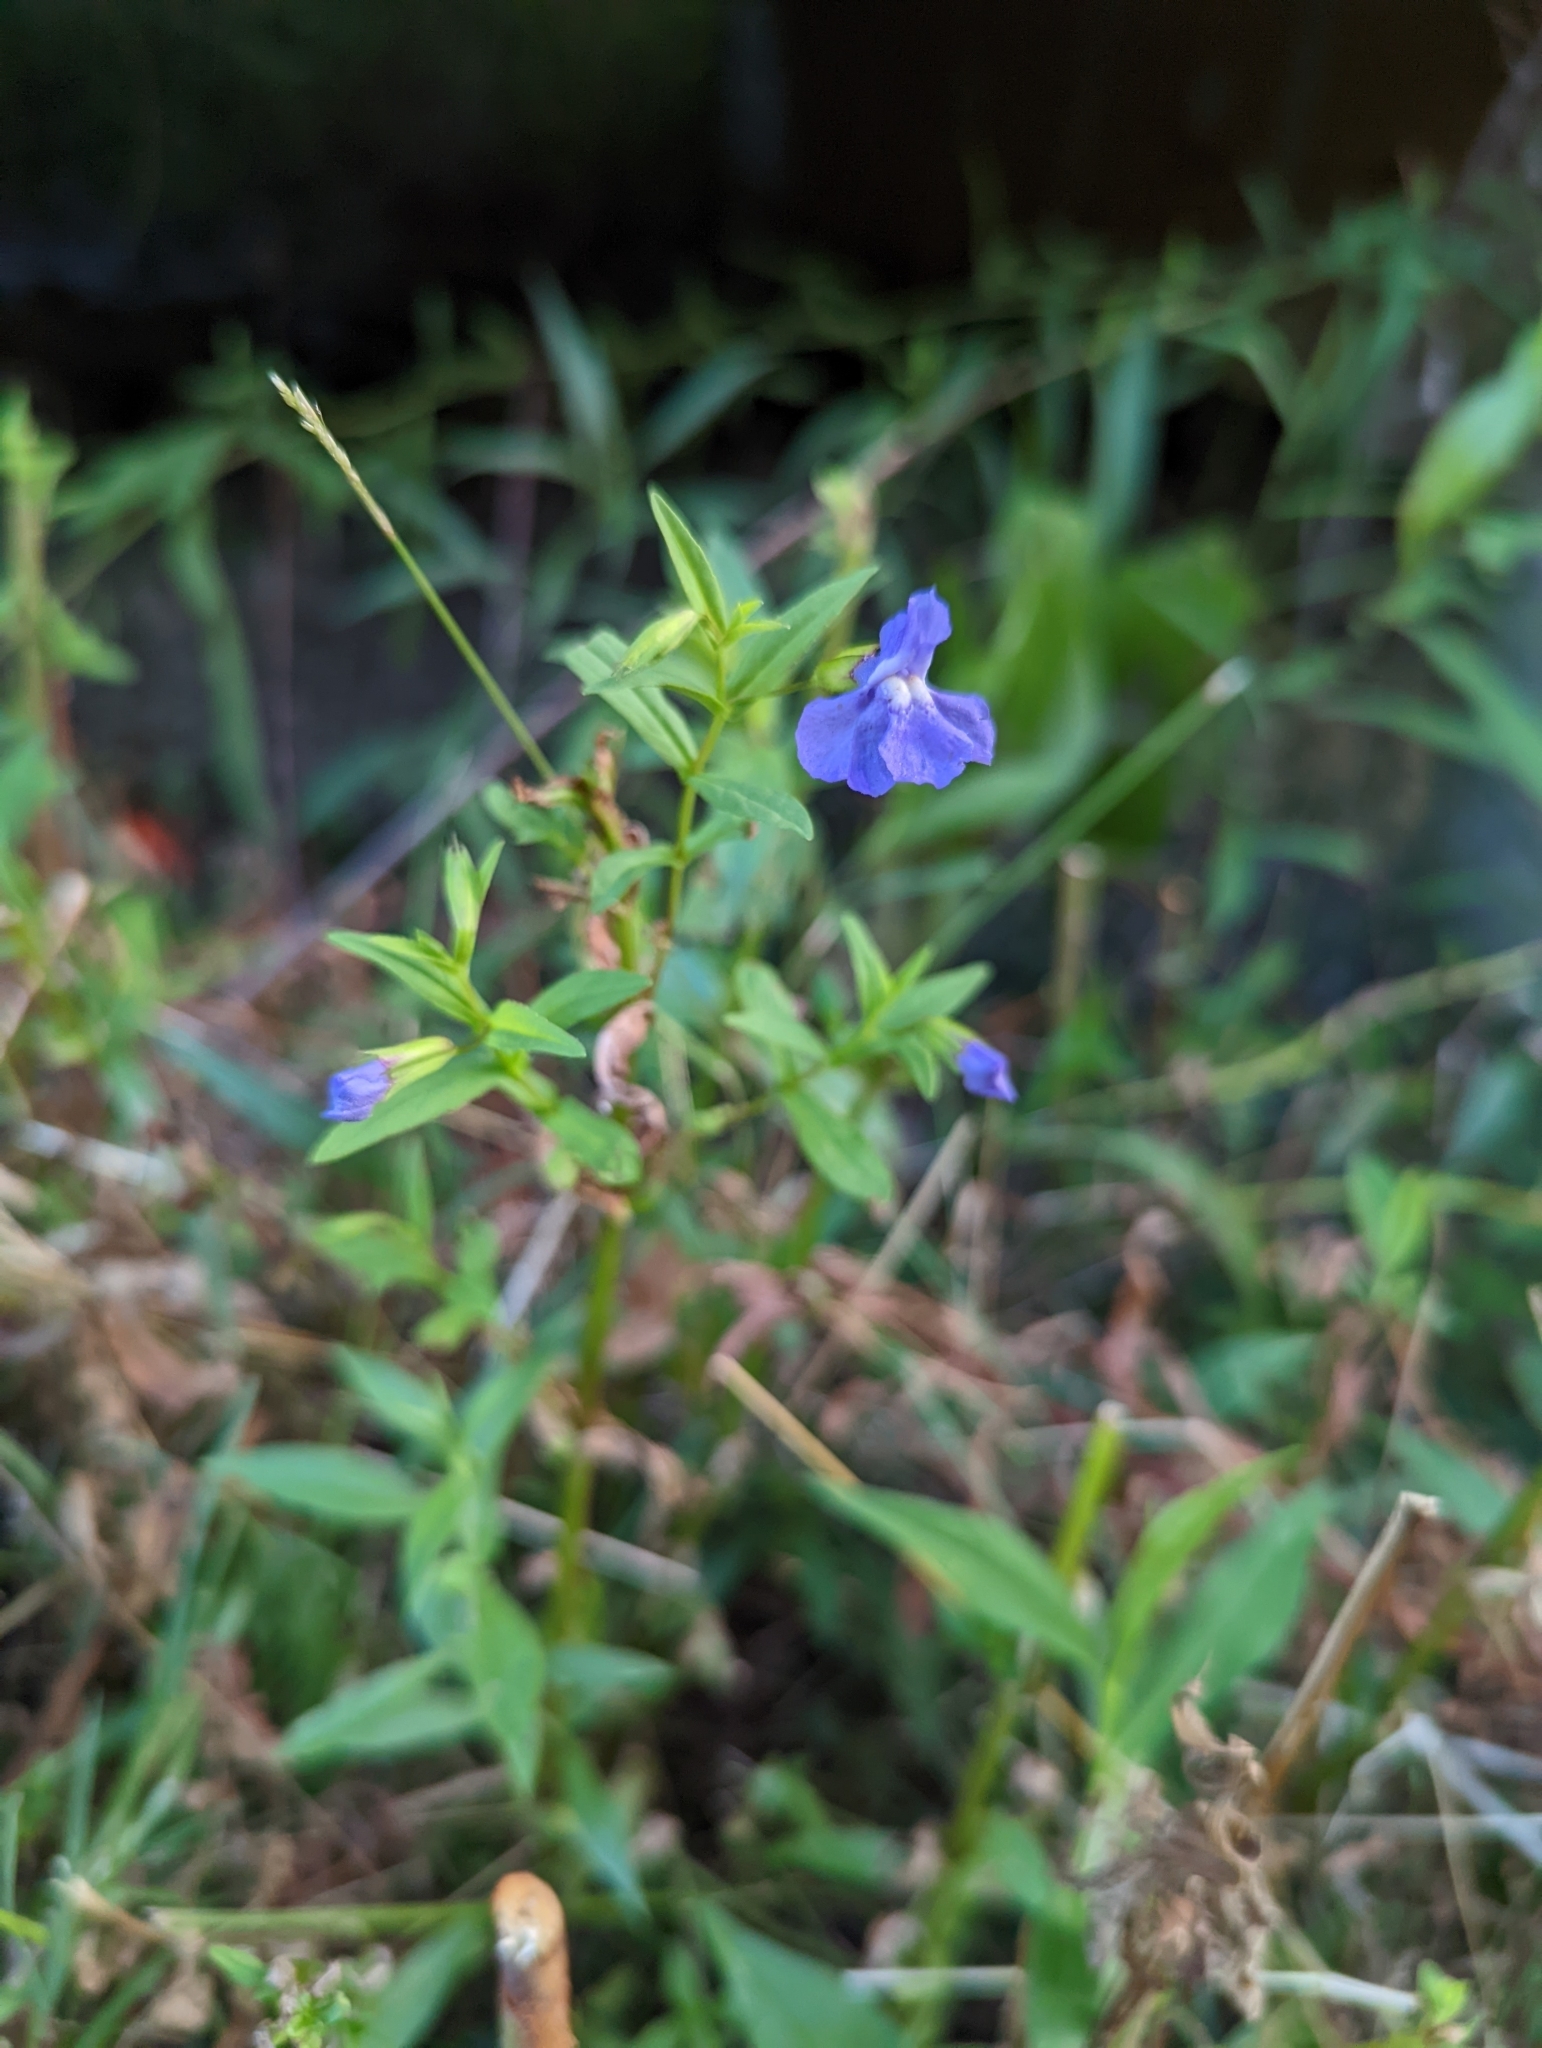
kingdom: Plantae
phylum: Tracheophyta
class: Magnoliopsida
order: Lamiales
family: Phrymaceae
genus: Mimulus
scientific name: Mimulus ringens
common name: Allegheny monkeyflower
